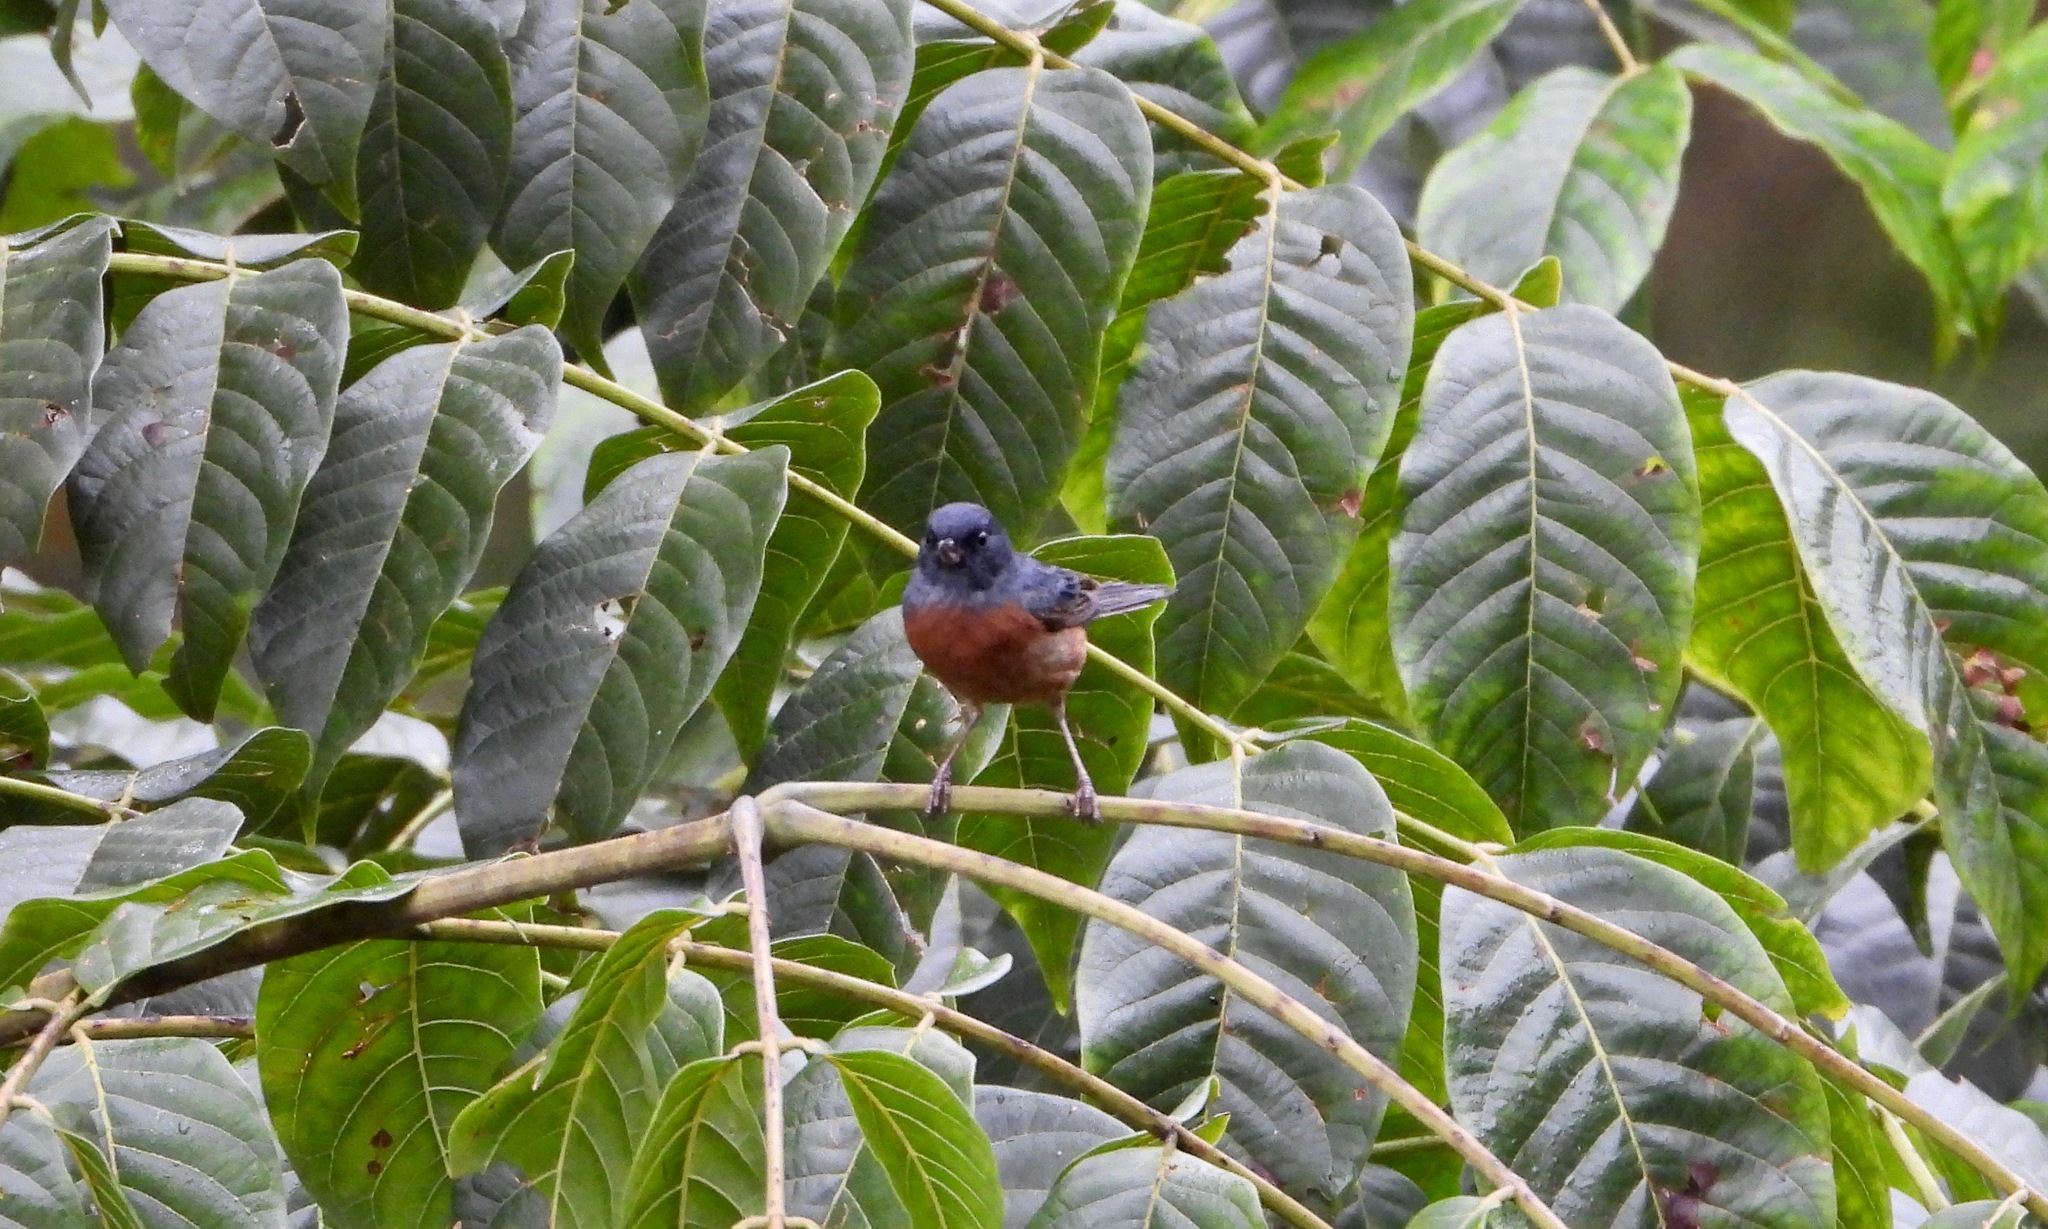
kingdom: Animalia
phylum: Chordata
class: Aves
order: Passeriformes
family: Thraupidae
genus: Diglossa
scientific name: Diglossa baritula
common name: Cinnamon-bellied flowerpiercer
